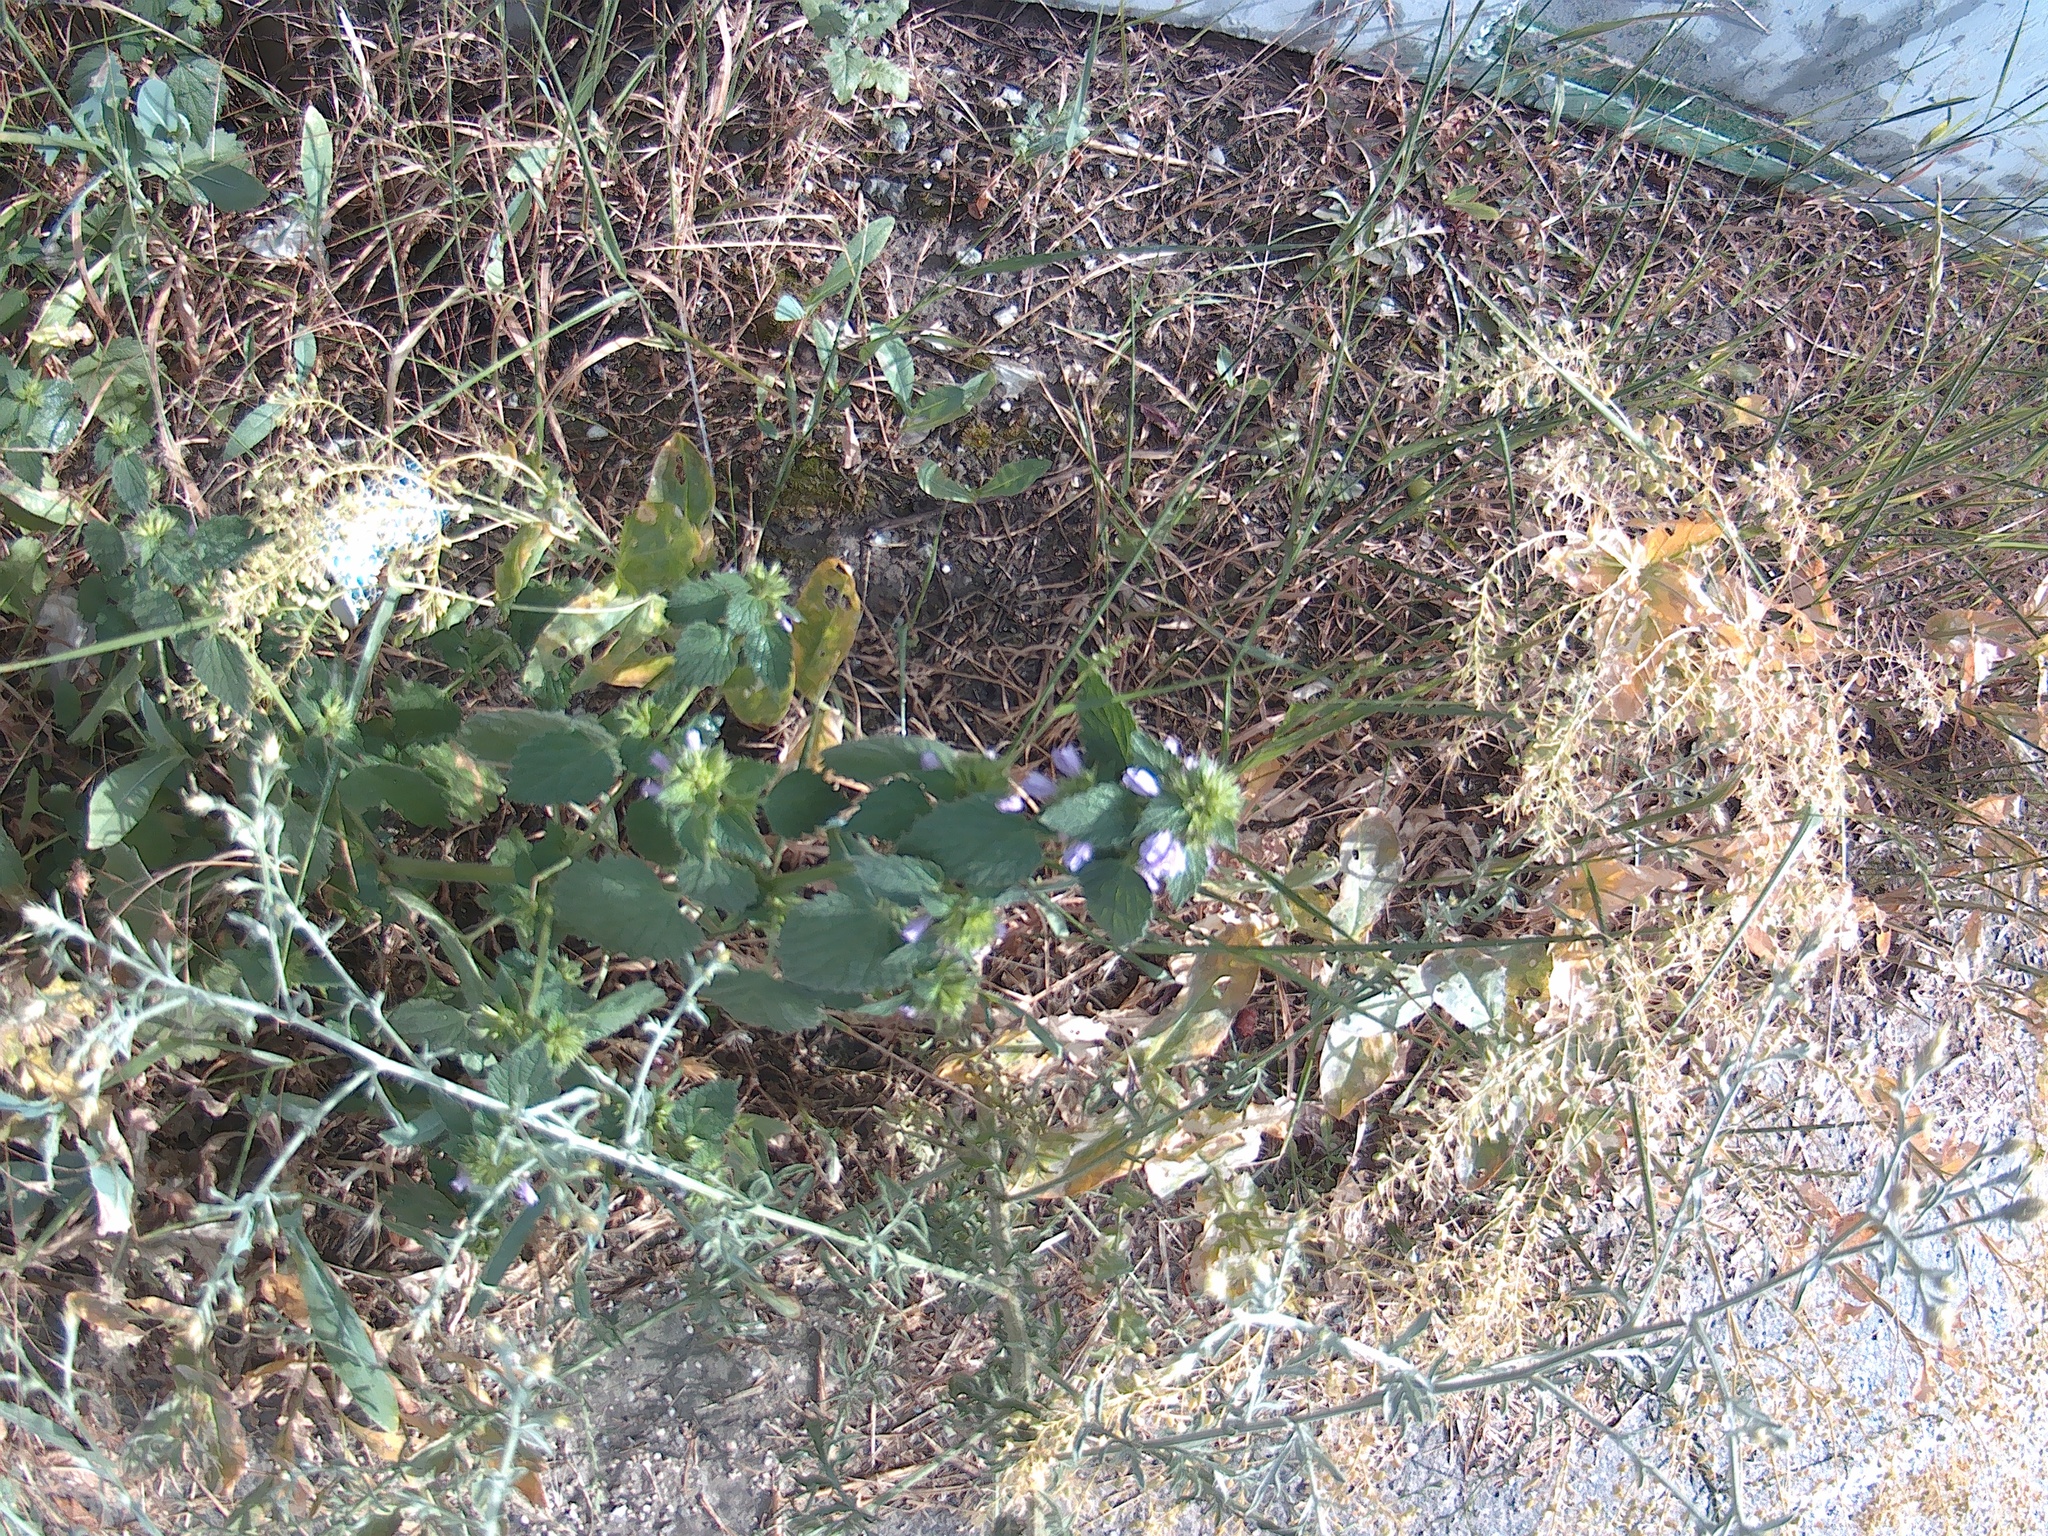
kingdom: Plantae
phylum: Tracheophyta
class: Magnoliopsida
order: Lamiales
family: Lamiaceae
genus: Ballota
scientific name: Ballota nigra
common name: Black horehound
